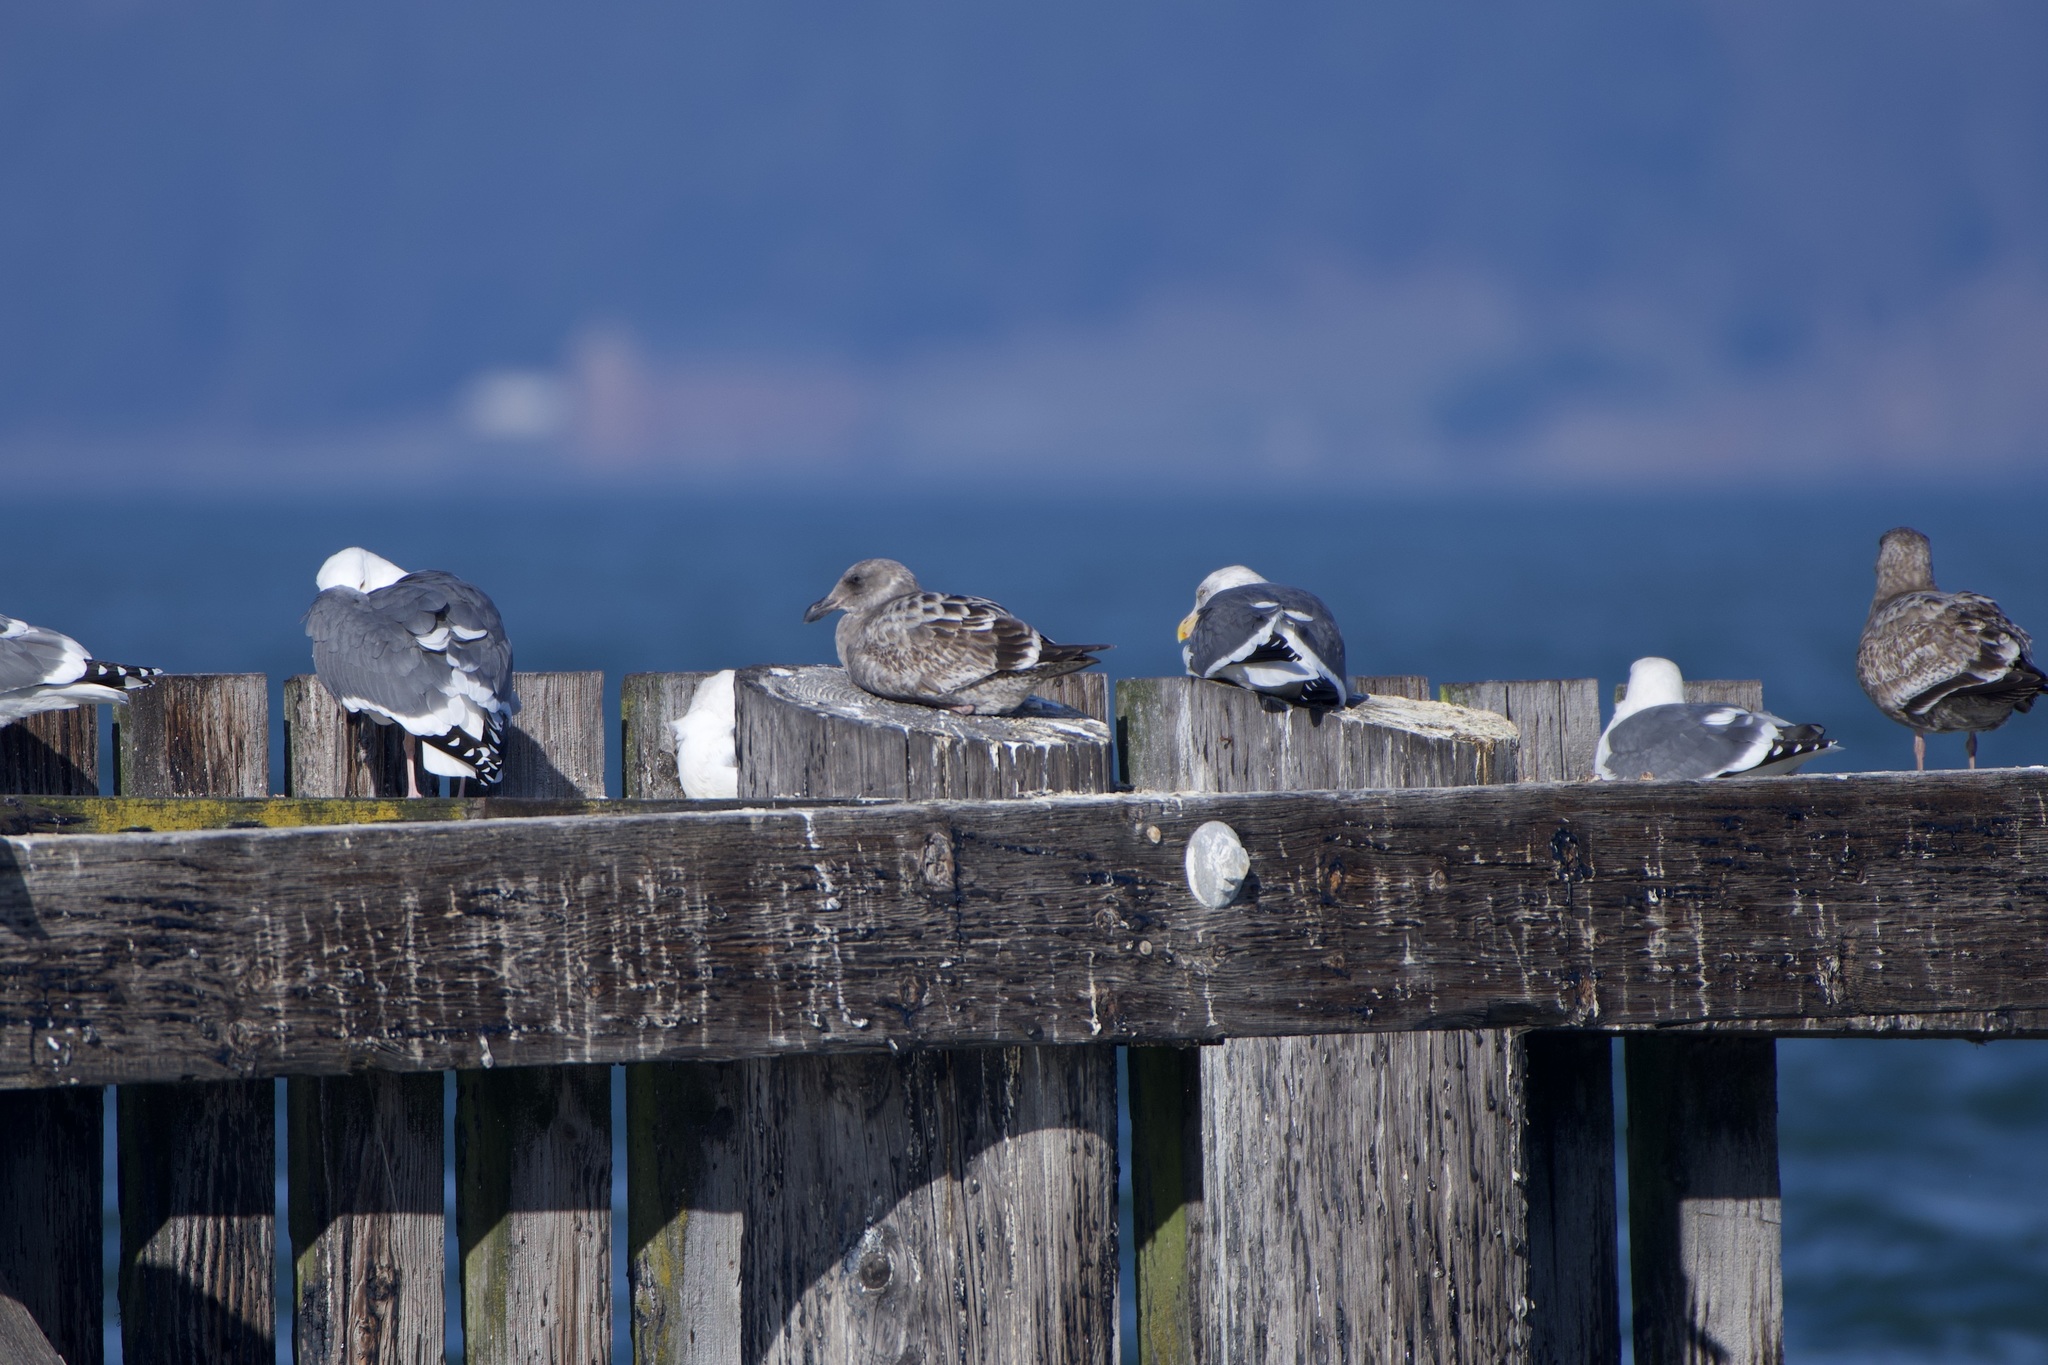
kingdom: Animalia
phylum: Chordata
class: Aves
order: Charadriiformes
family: Laridae
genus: Larus
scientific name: Larus occidentalis
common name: Western gull
